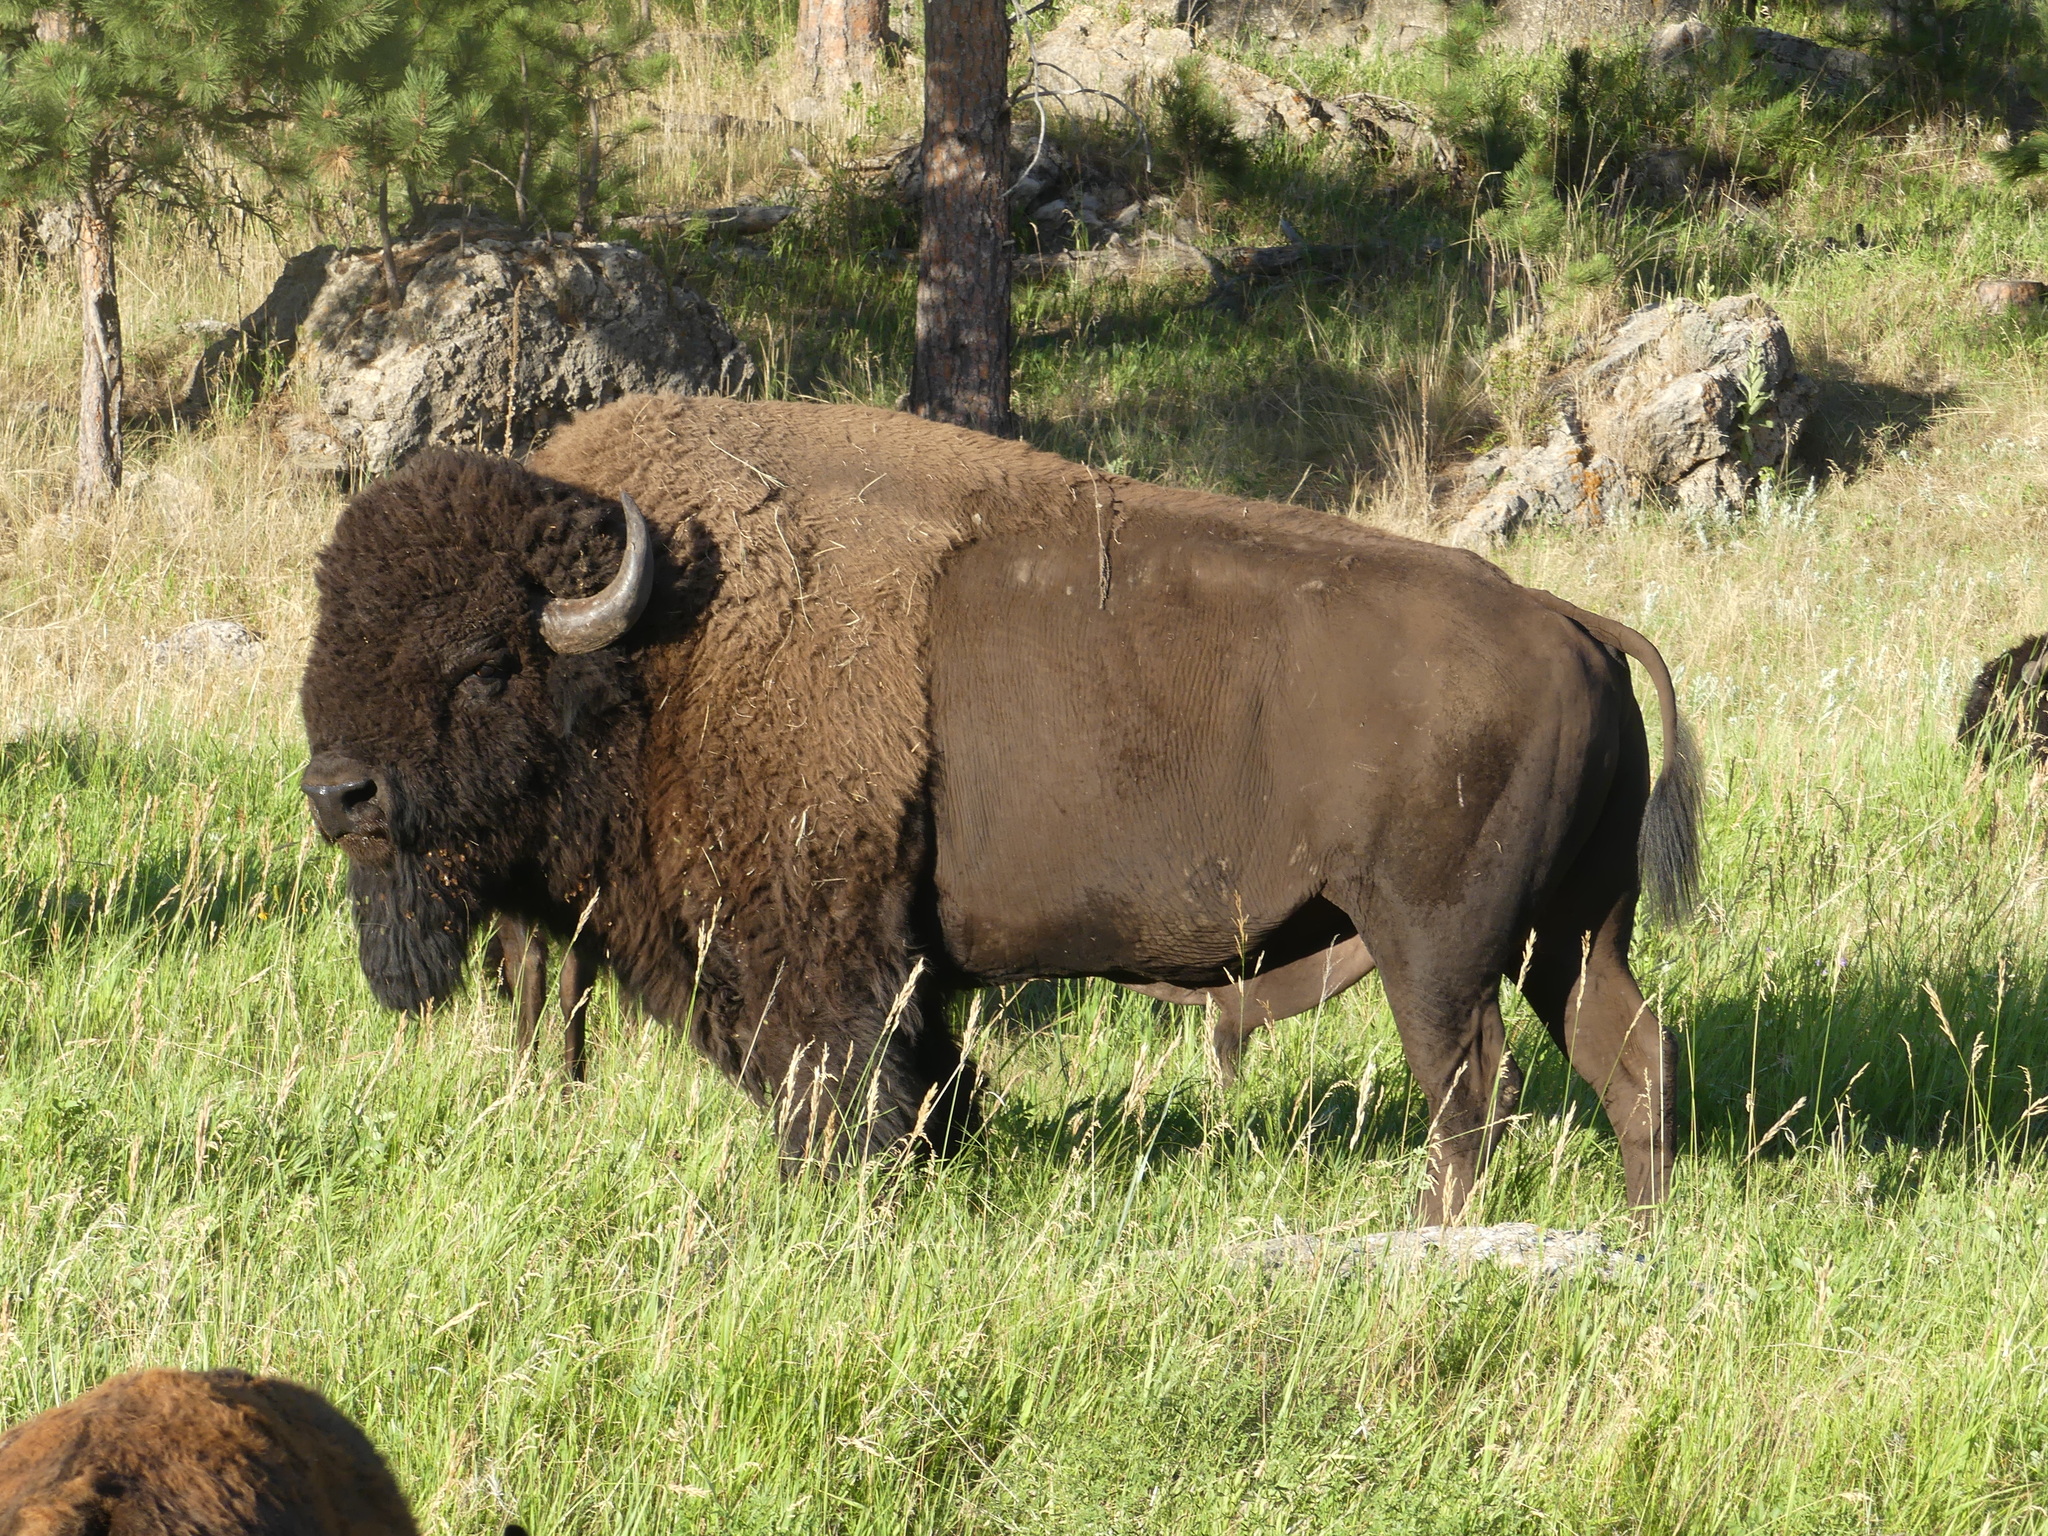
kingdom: Animalia
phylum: Chordata
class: Mammalia
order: Artiodactyla
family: Bovidae
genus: Bison
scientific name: Bison bison
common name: American bison
